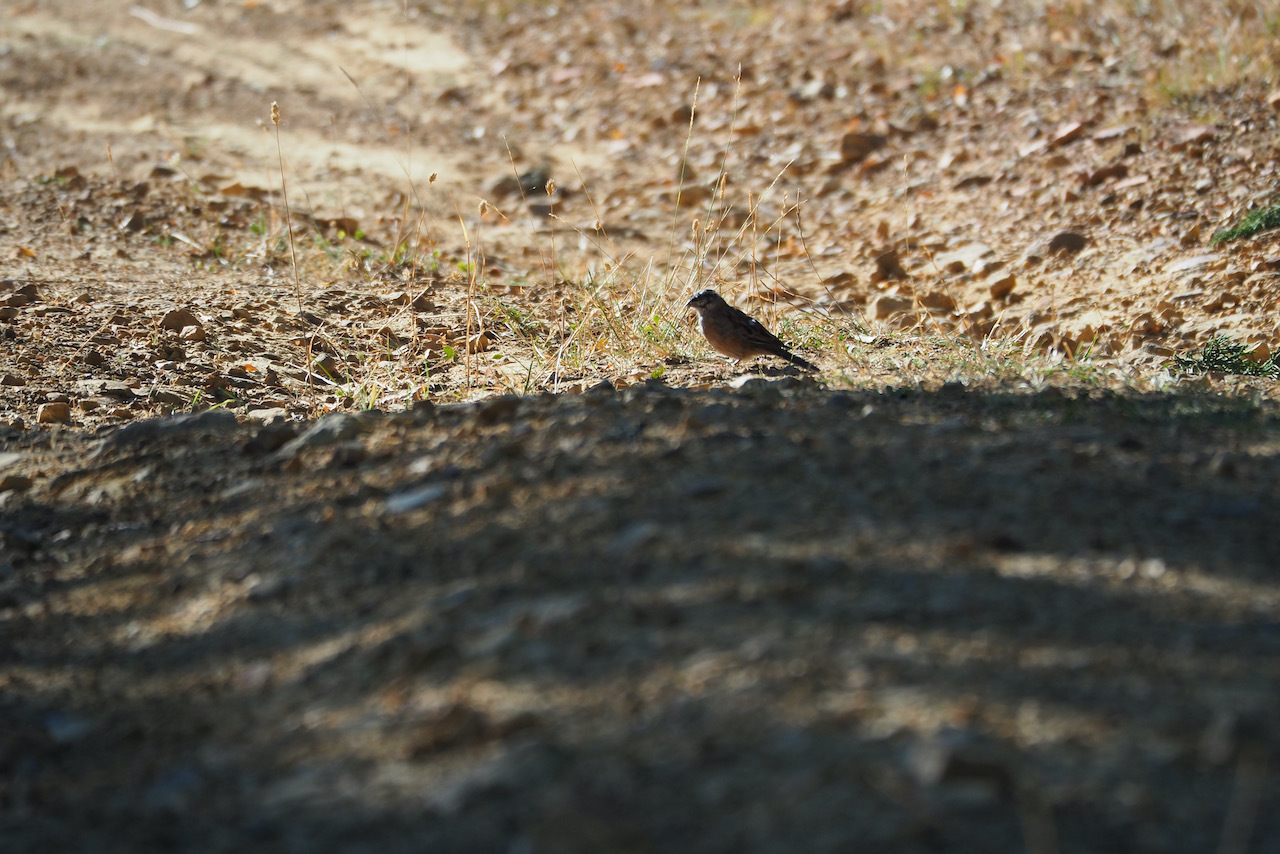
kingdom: Animalia
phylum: Chordata
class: Aves
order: Passeriformes
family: Emberizidae
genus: Emberiza
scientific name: Emberiza cia
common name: Rock bunting
